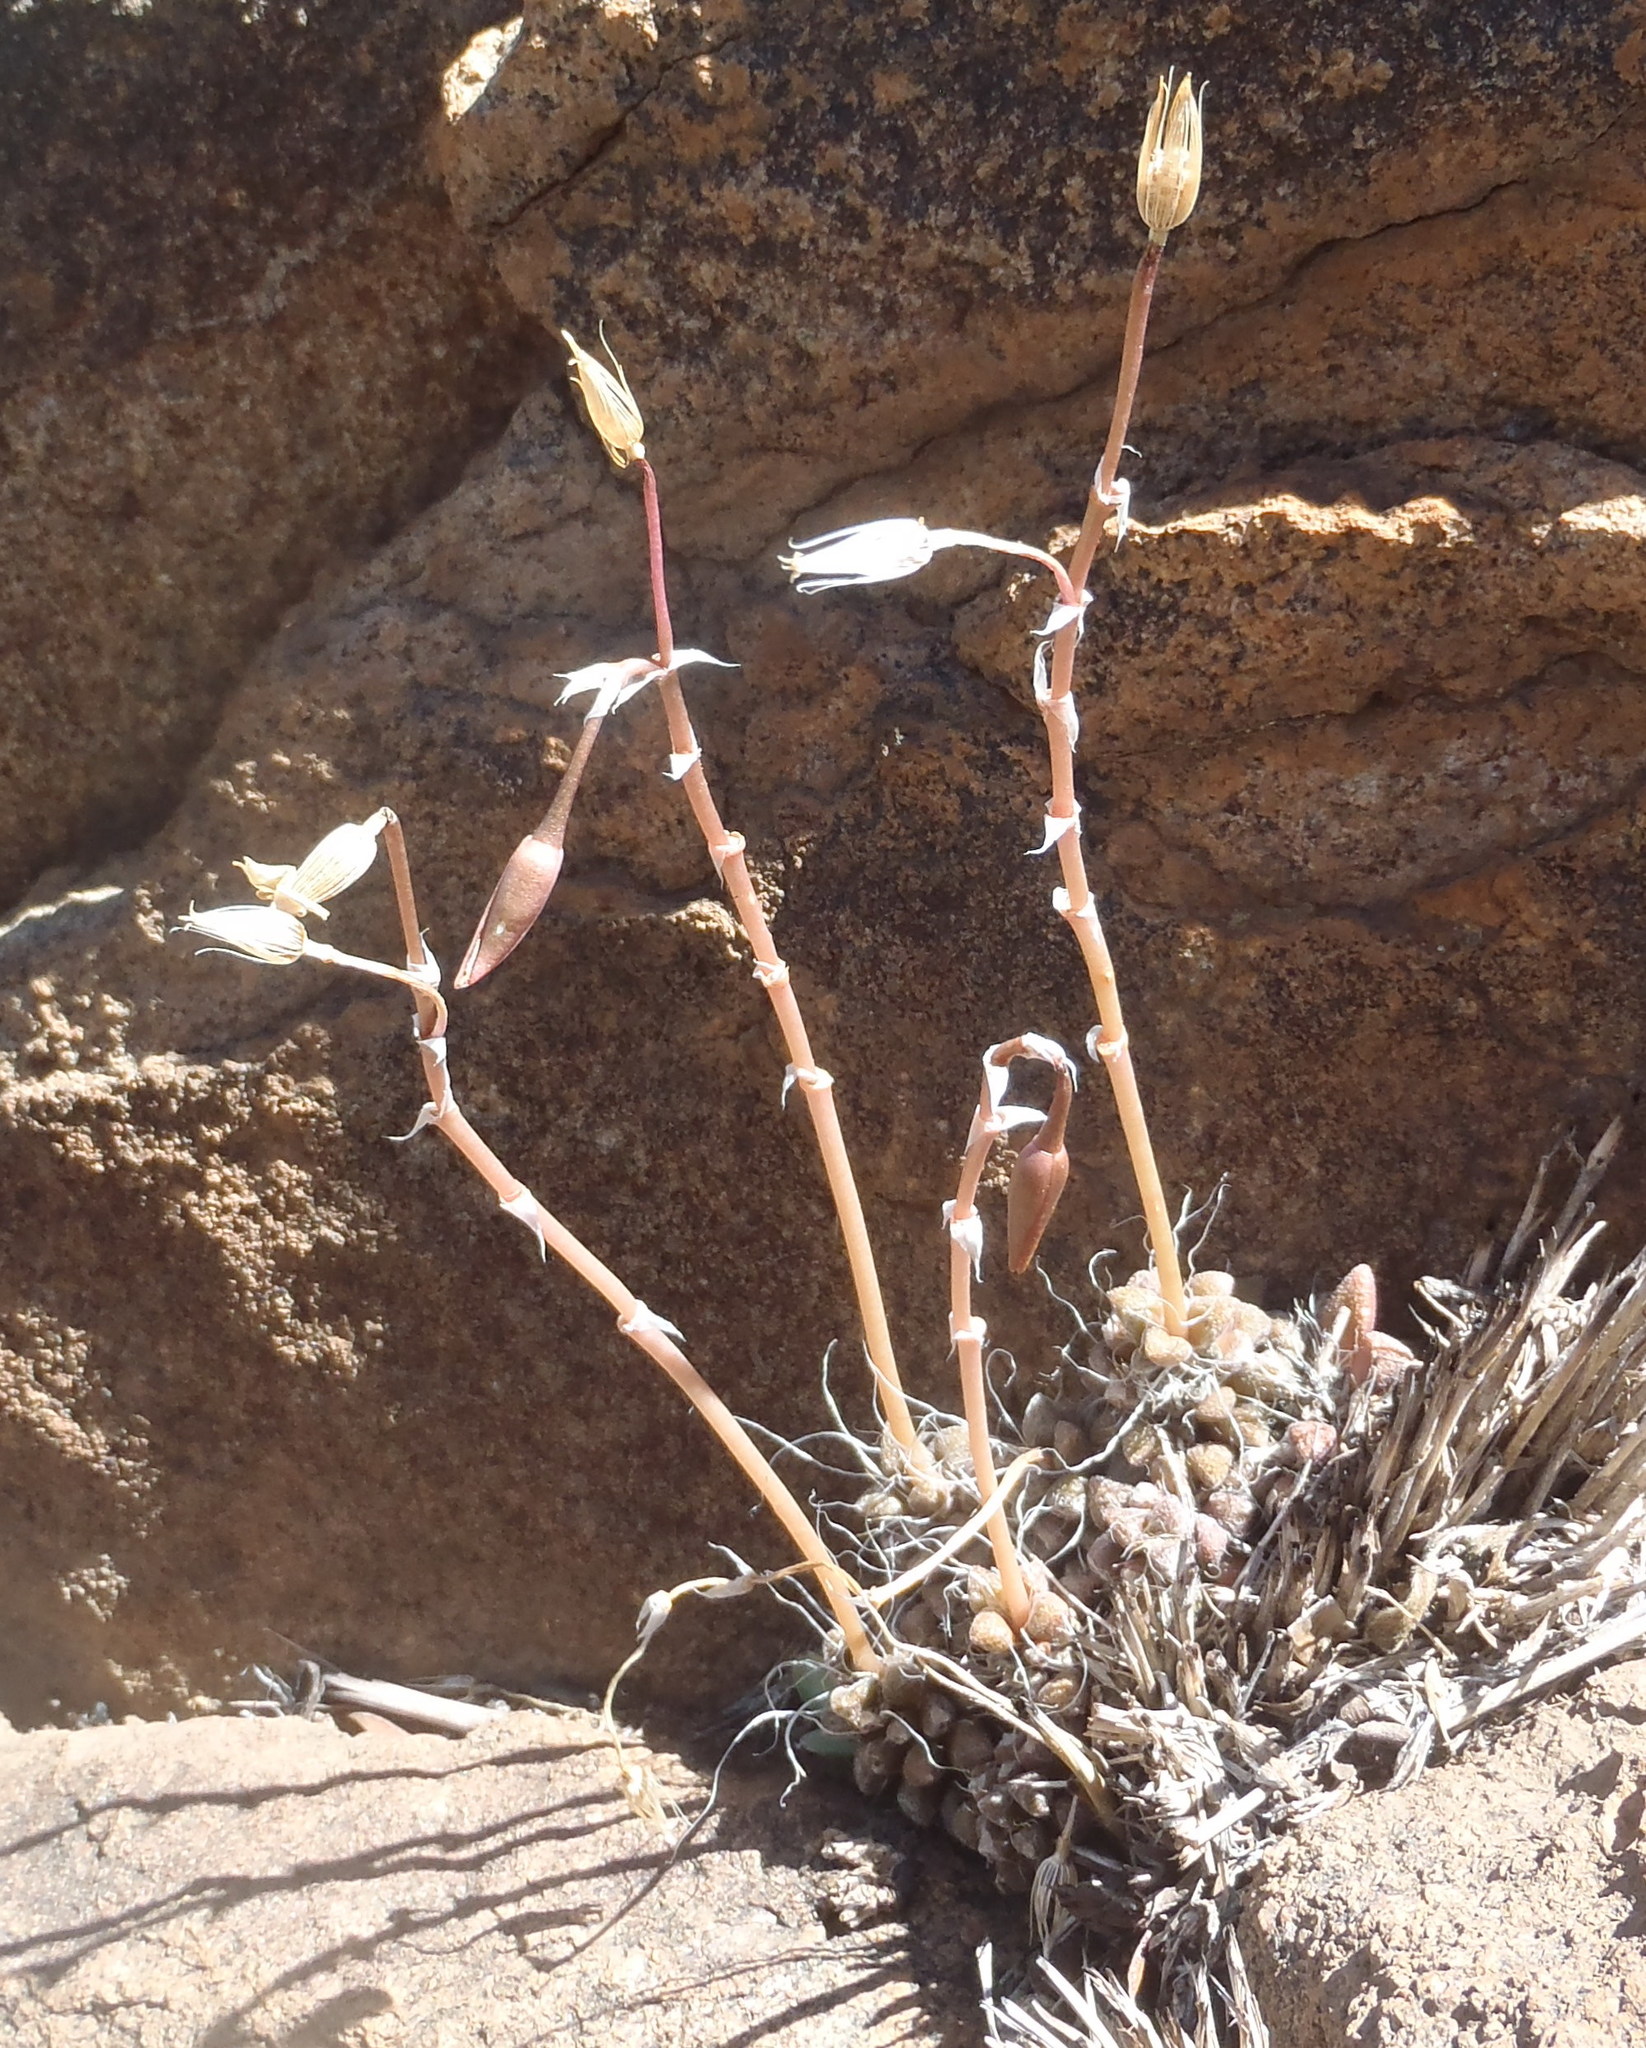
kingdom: Plantae
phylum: Tracheophyta
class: Magnoliopsida
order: Caryophyllales
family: Anacampserotaceae
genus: Anacampseros
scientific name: Anacampseros filamentosa
